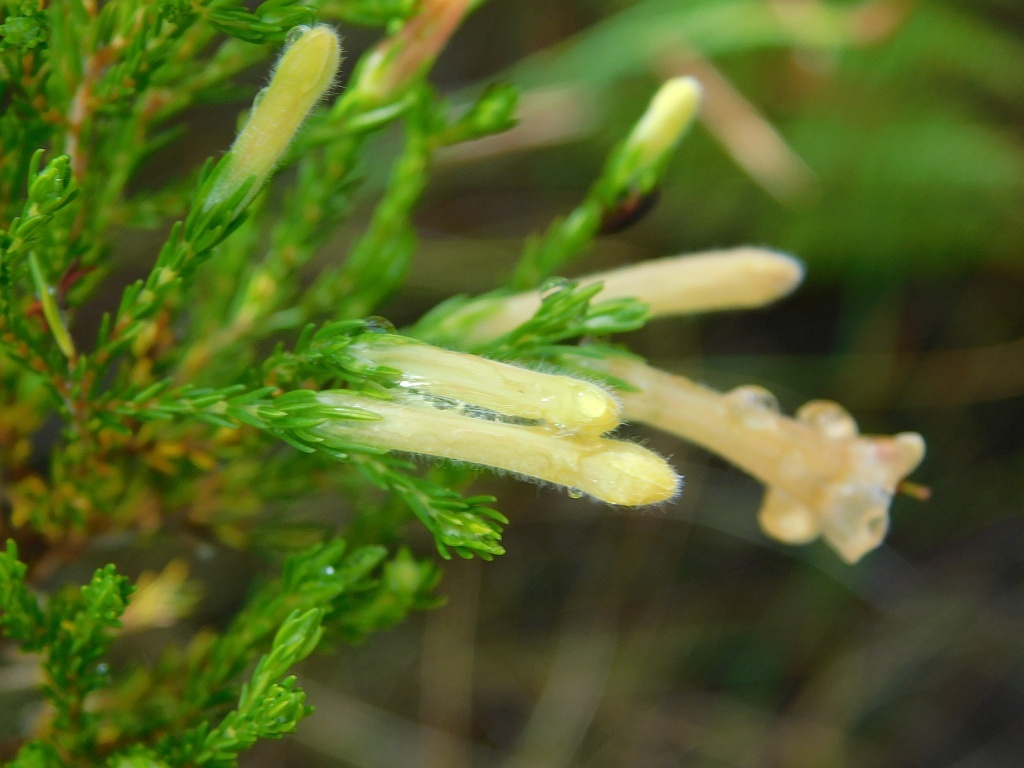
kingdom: Plantae
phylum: Tracheophyta
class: Magnoliopsida
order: Ericales
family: Ericaceae
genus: Erica
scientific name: Erica curviflora
